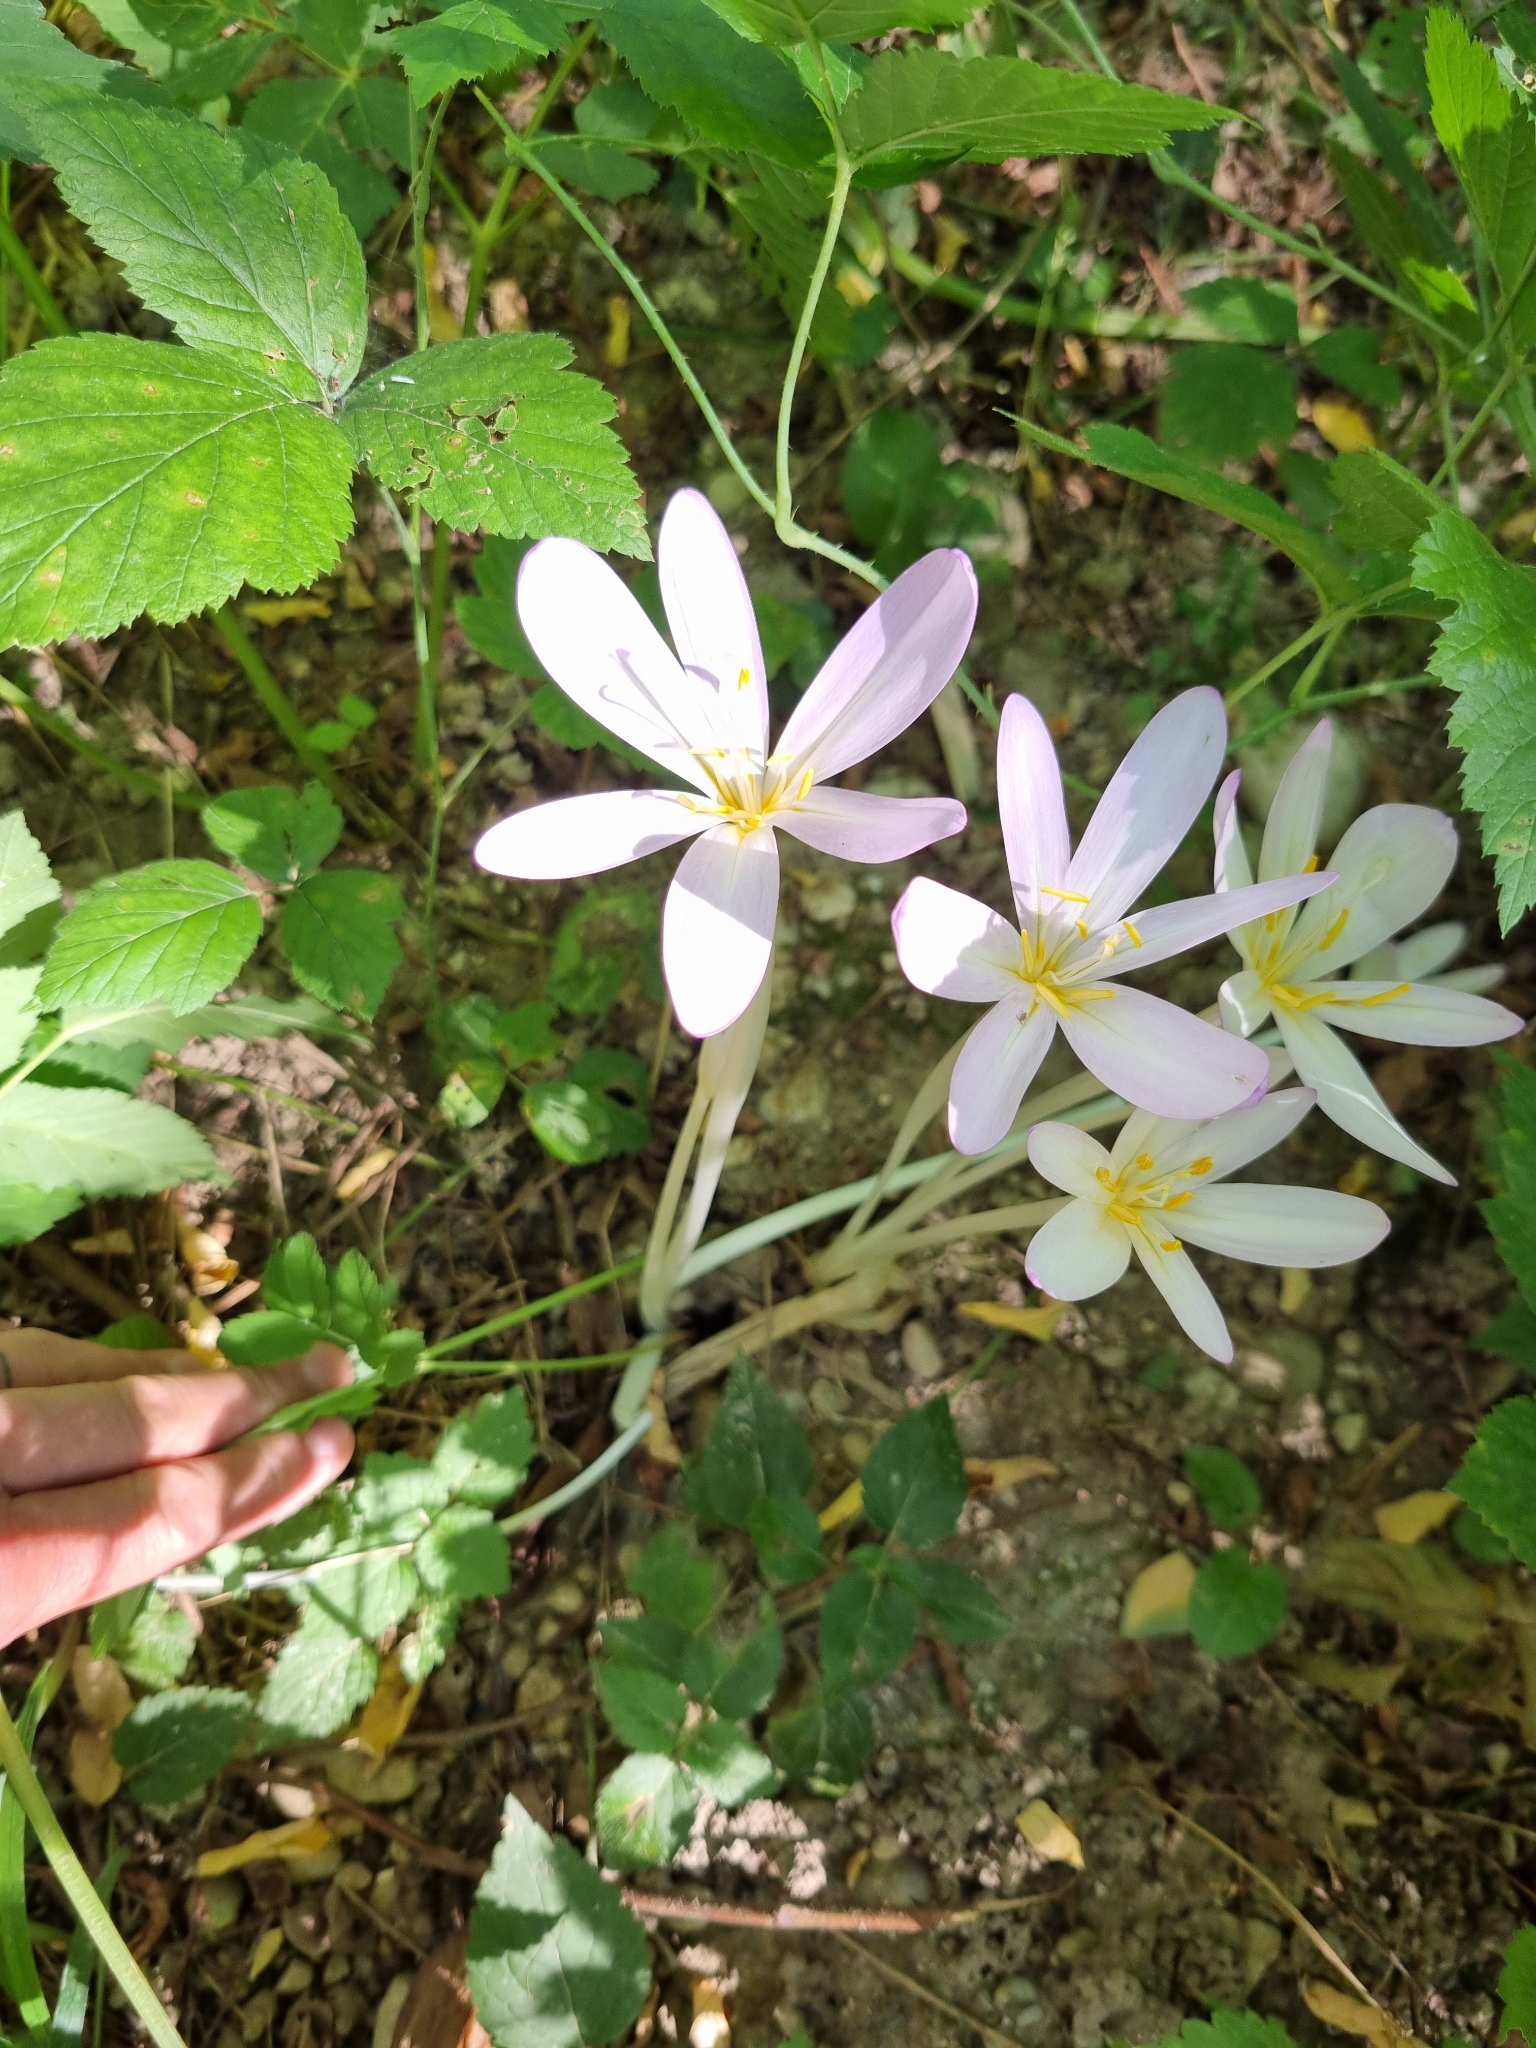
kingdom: Plantae
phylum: Tracheophyta
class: Liliopsida
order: Liliales
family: Colchicaceae
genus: Colchicum
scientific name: Colchicum autumnale
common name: Autumn crocus
